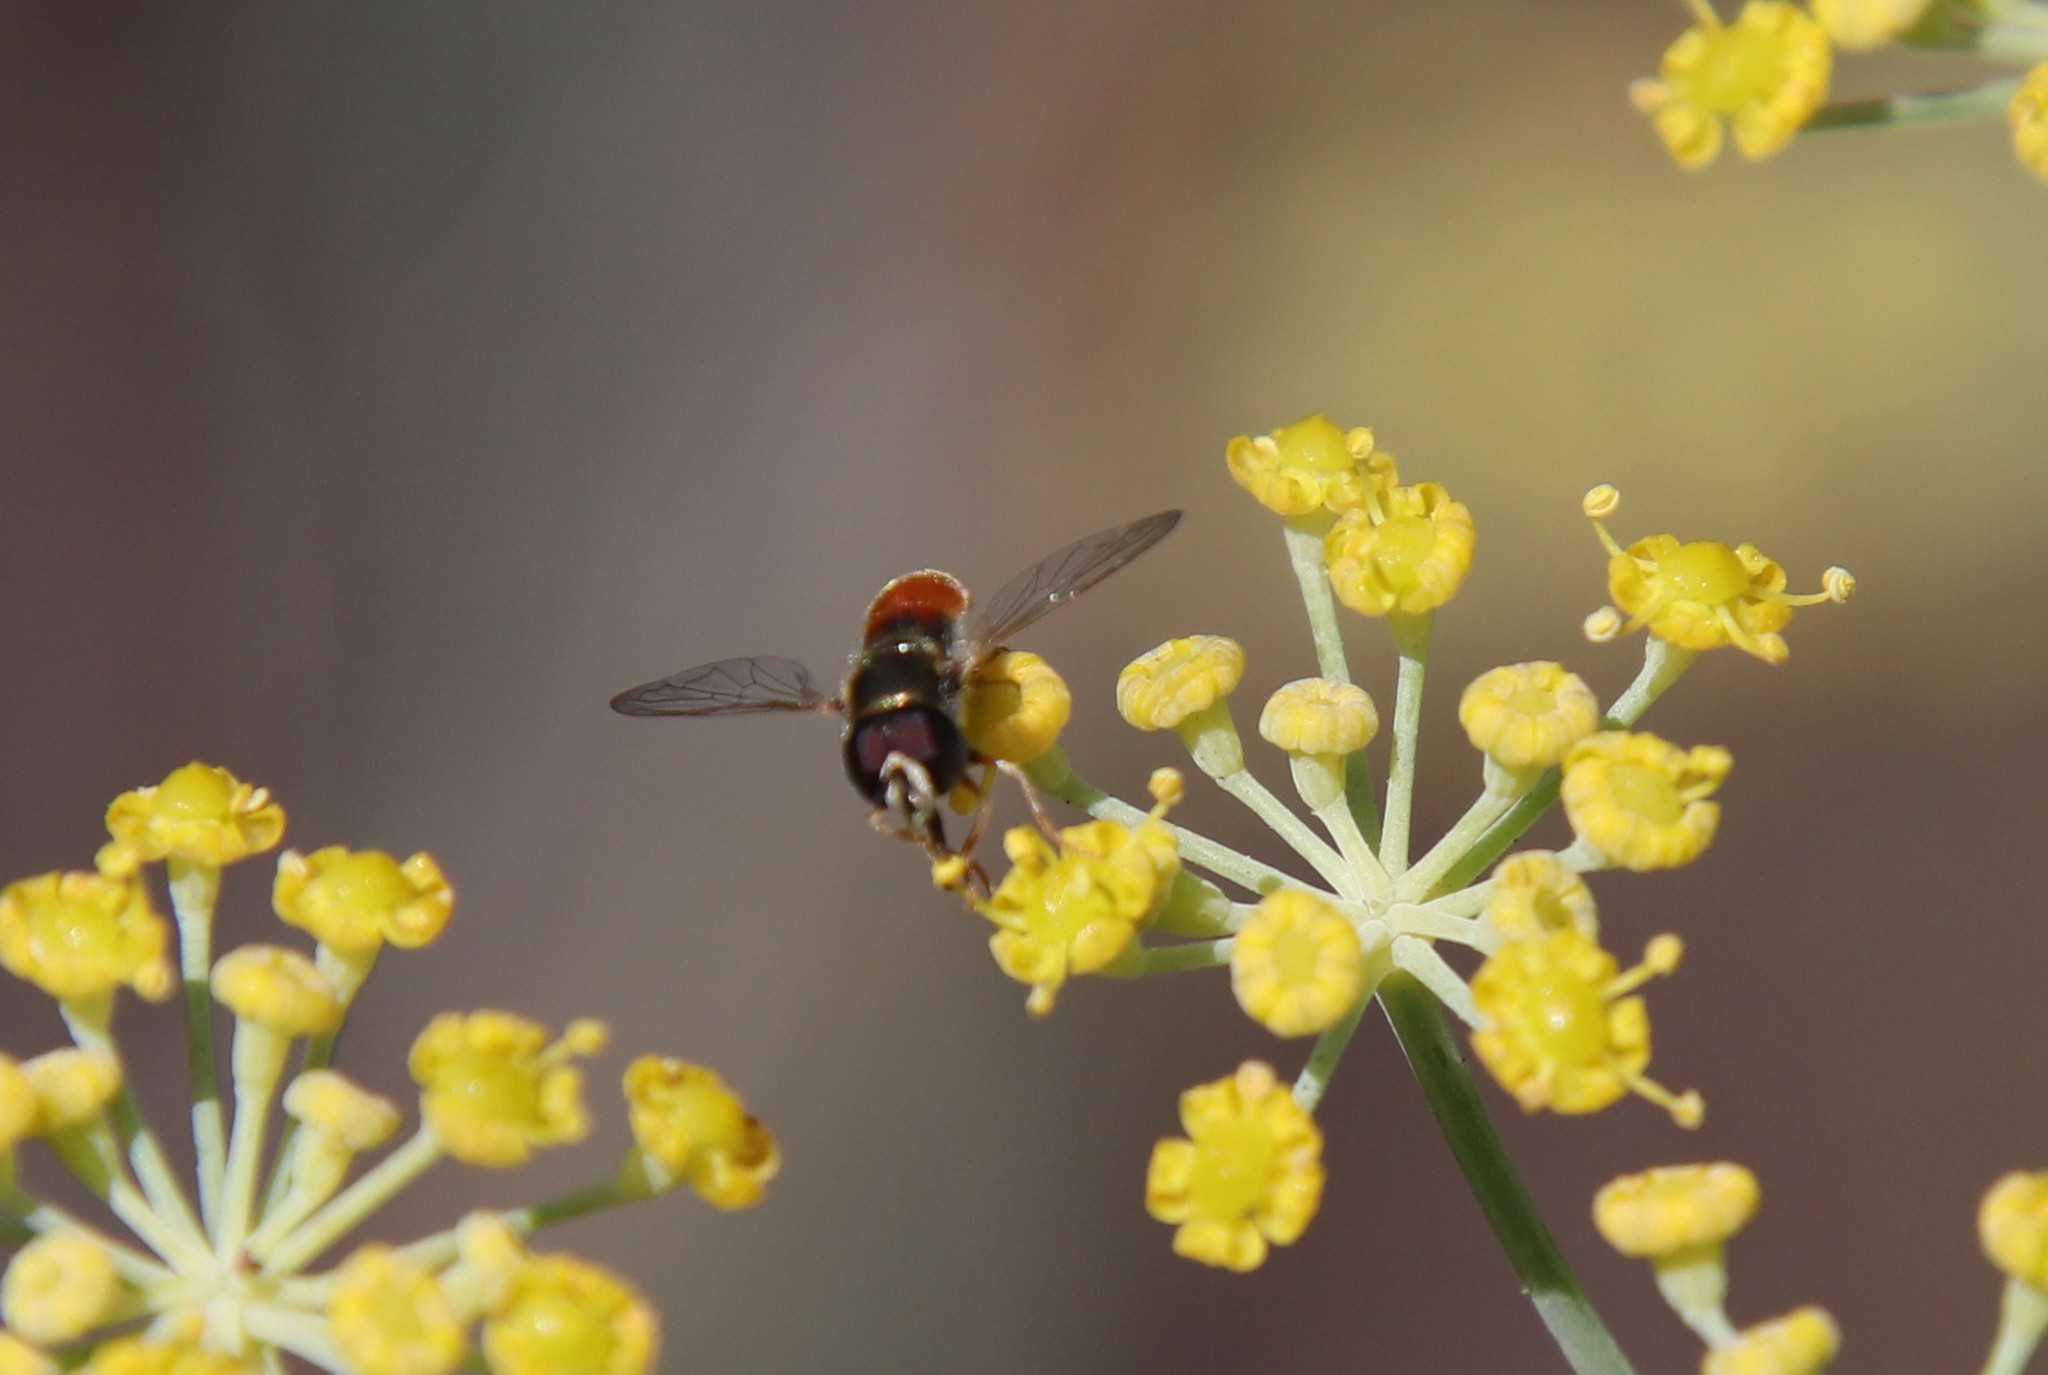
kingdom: Animalia
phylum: Arthropoda
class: Insecta
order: Diptera
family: Syrphidae
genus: Paragus
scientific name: Paragus haemorrhous
